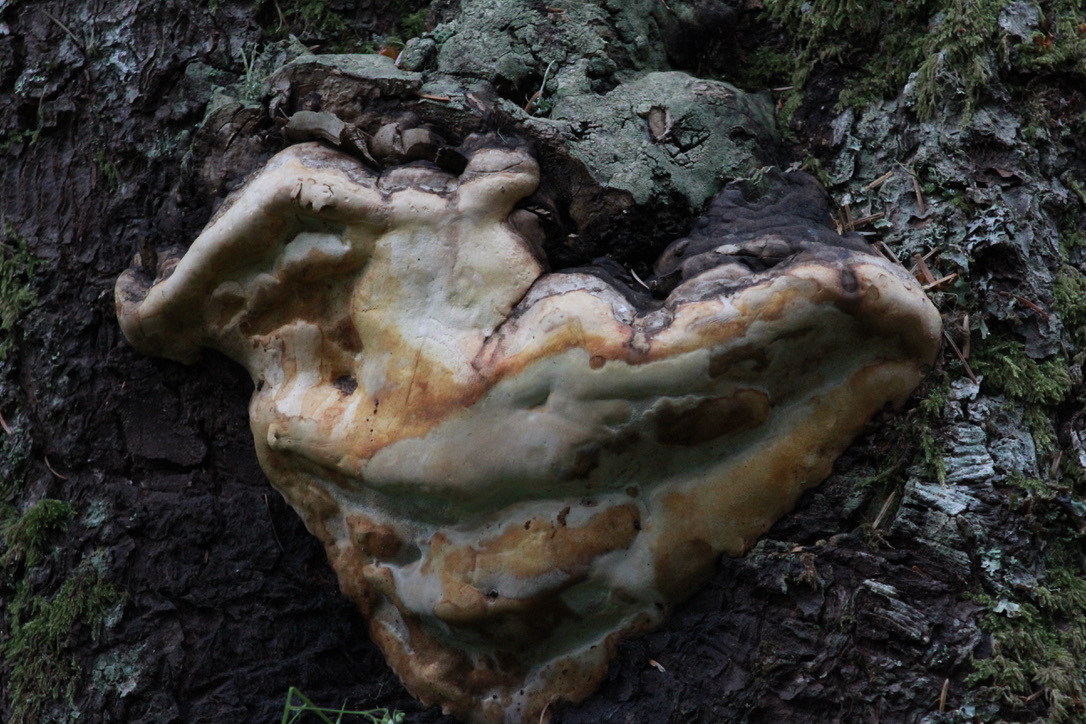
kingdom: Fungi
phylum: Basidiomycota
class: Agaricomycetes
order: Polyporales
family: Fomitopsidaceae
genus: Fomitopsis
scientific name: Fomitopsis ochracea
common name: American brown fomitopsis
